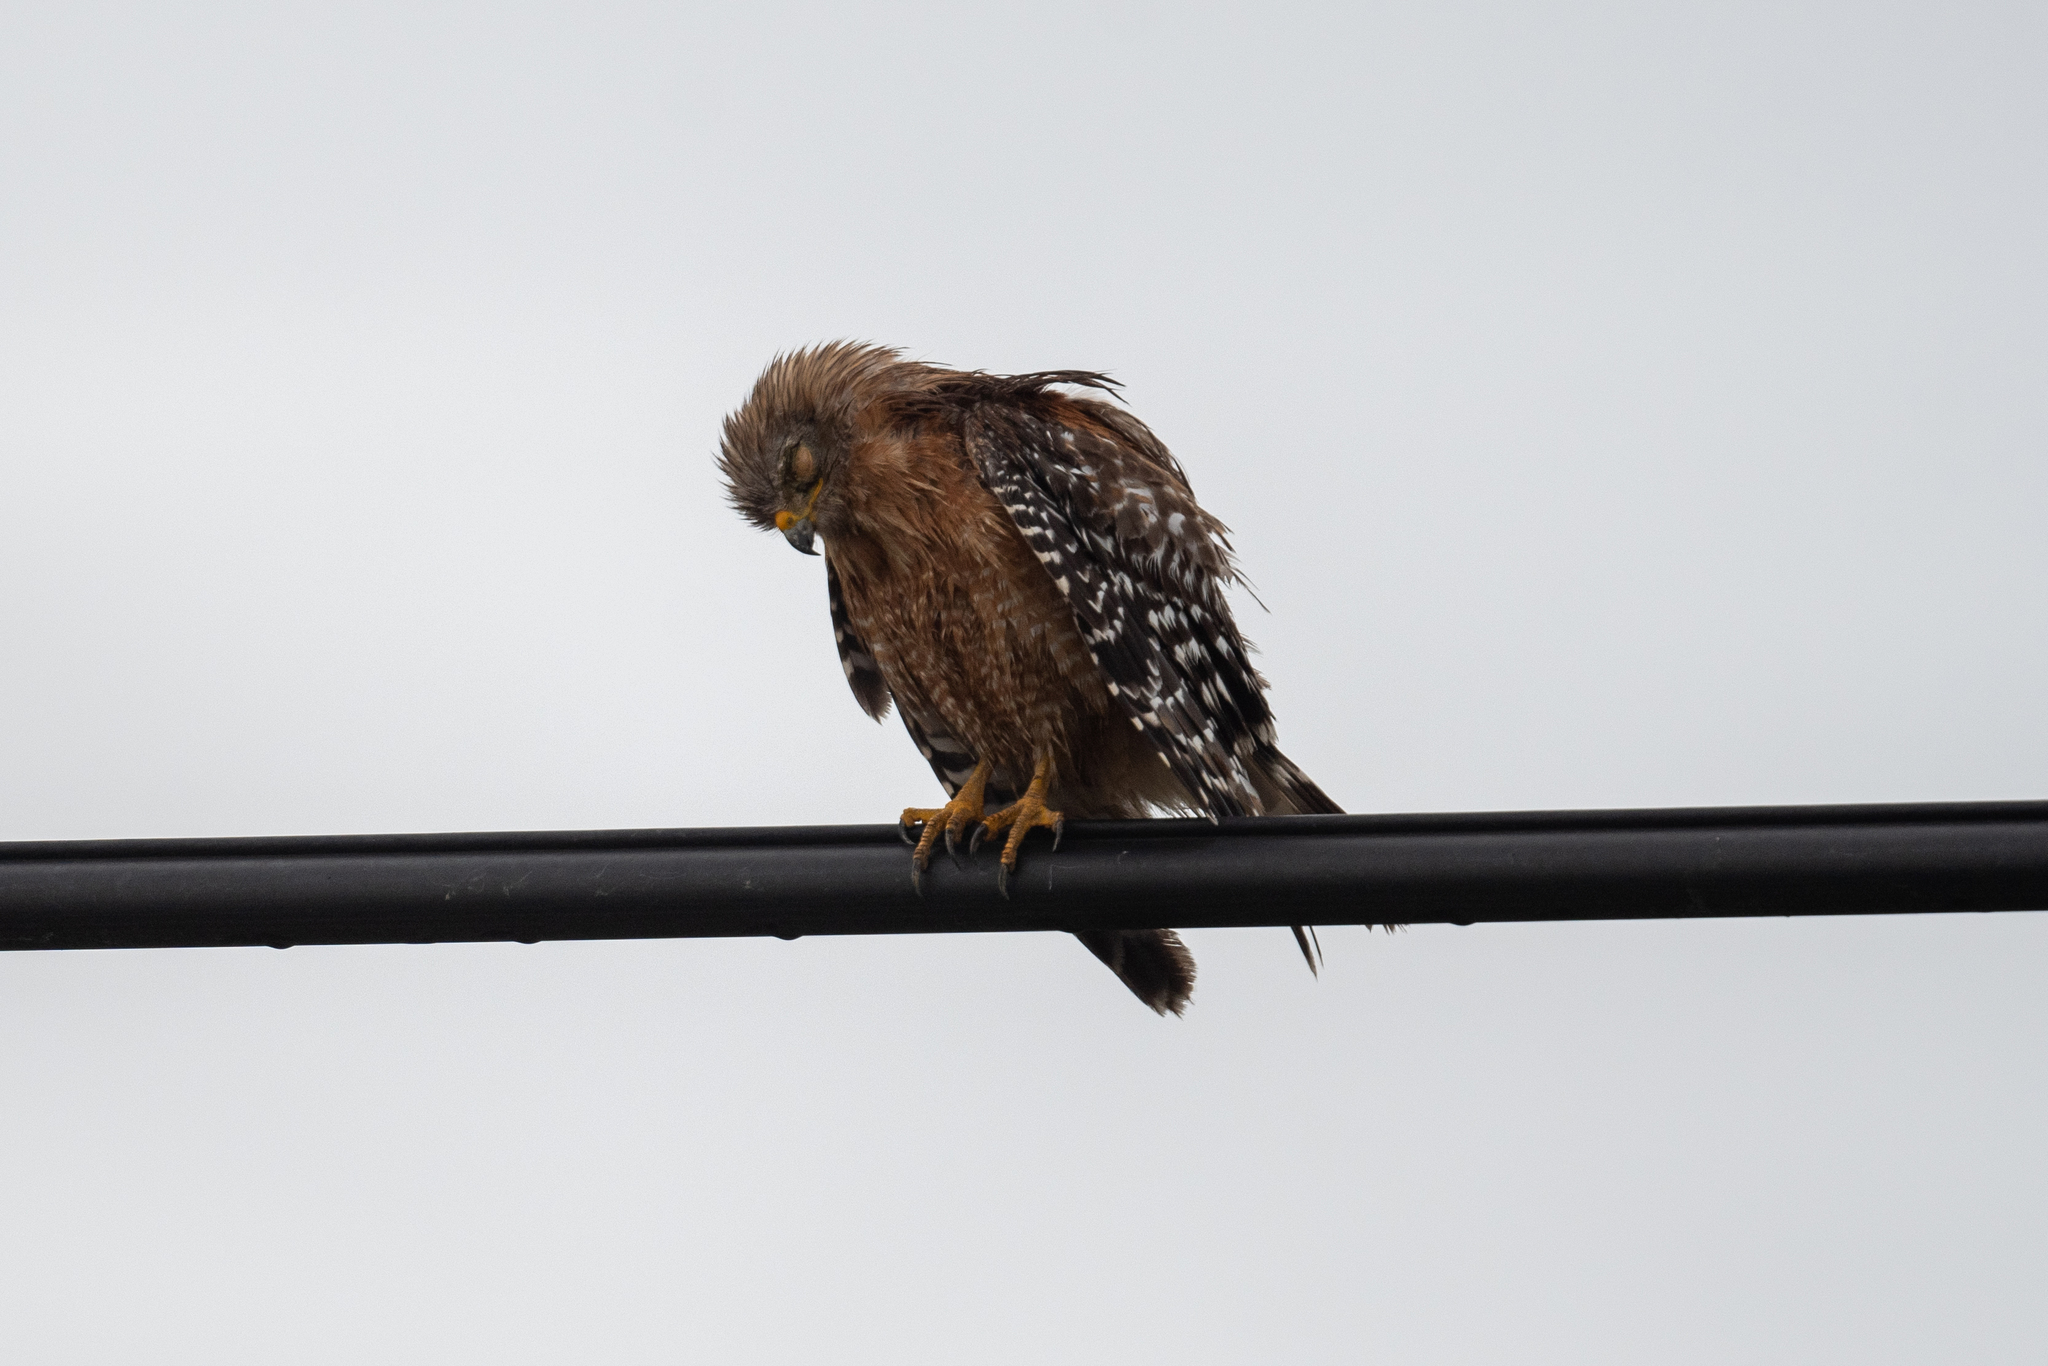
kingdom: Animalia
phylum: Chordata
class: Aves
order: Accipitriformes
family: Accipitridae
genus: Buteo
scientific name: Buteo lineatus
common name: Red-shouldered hawk
